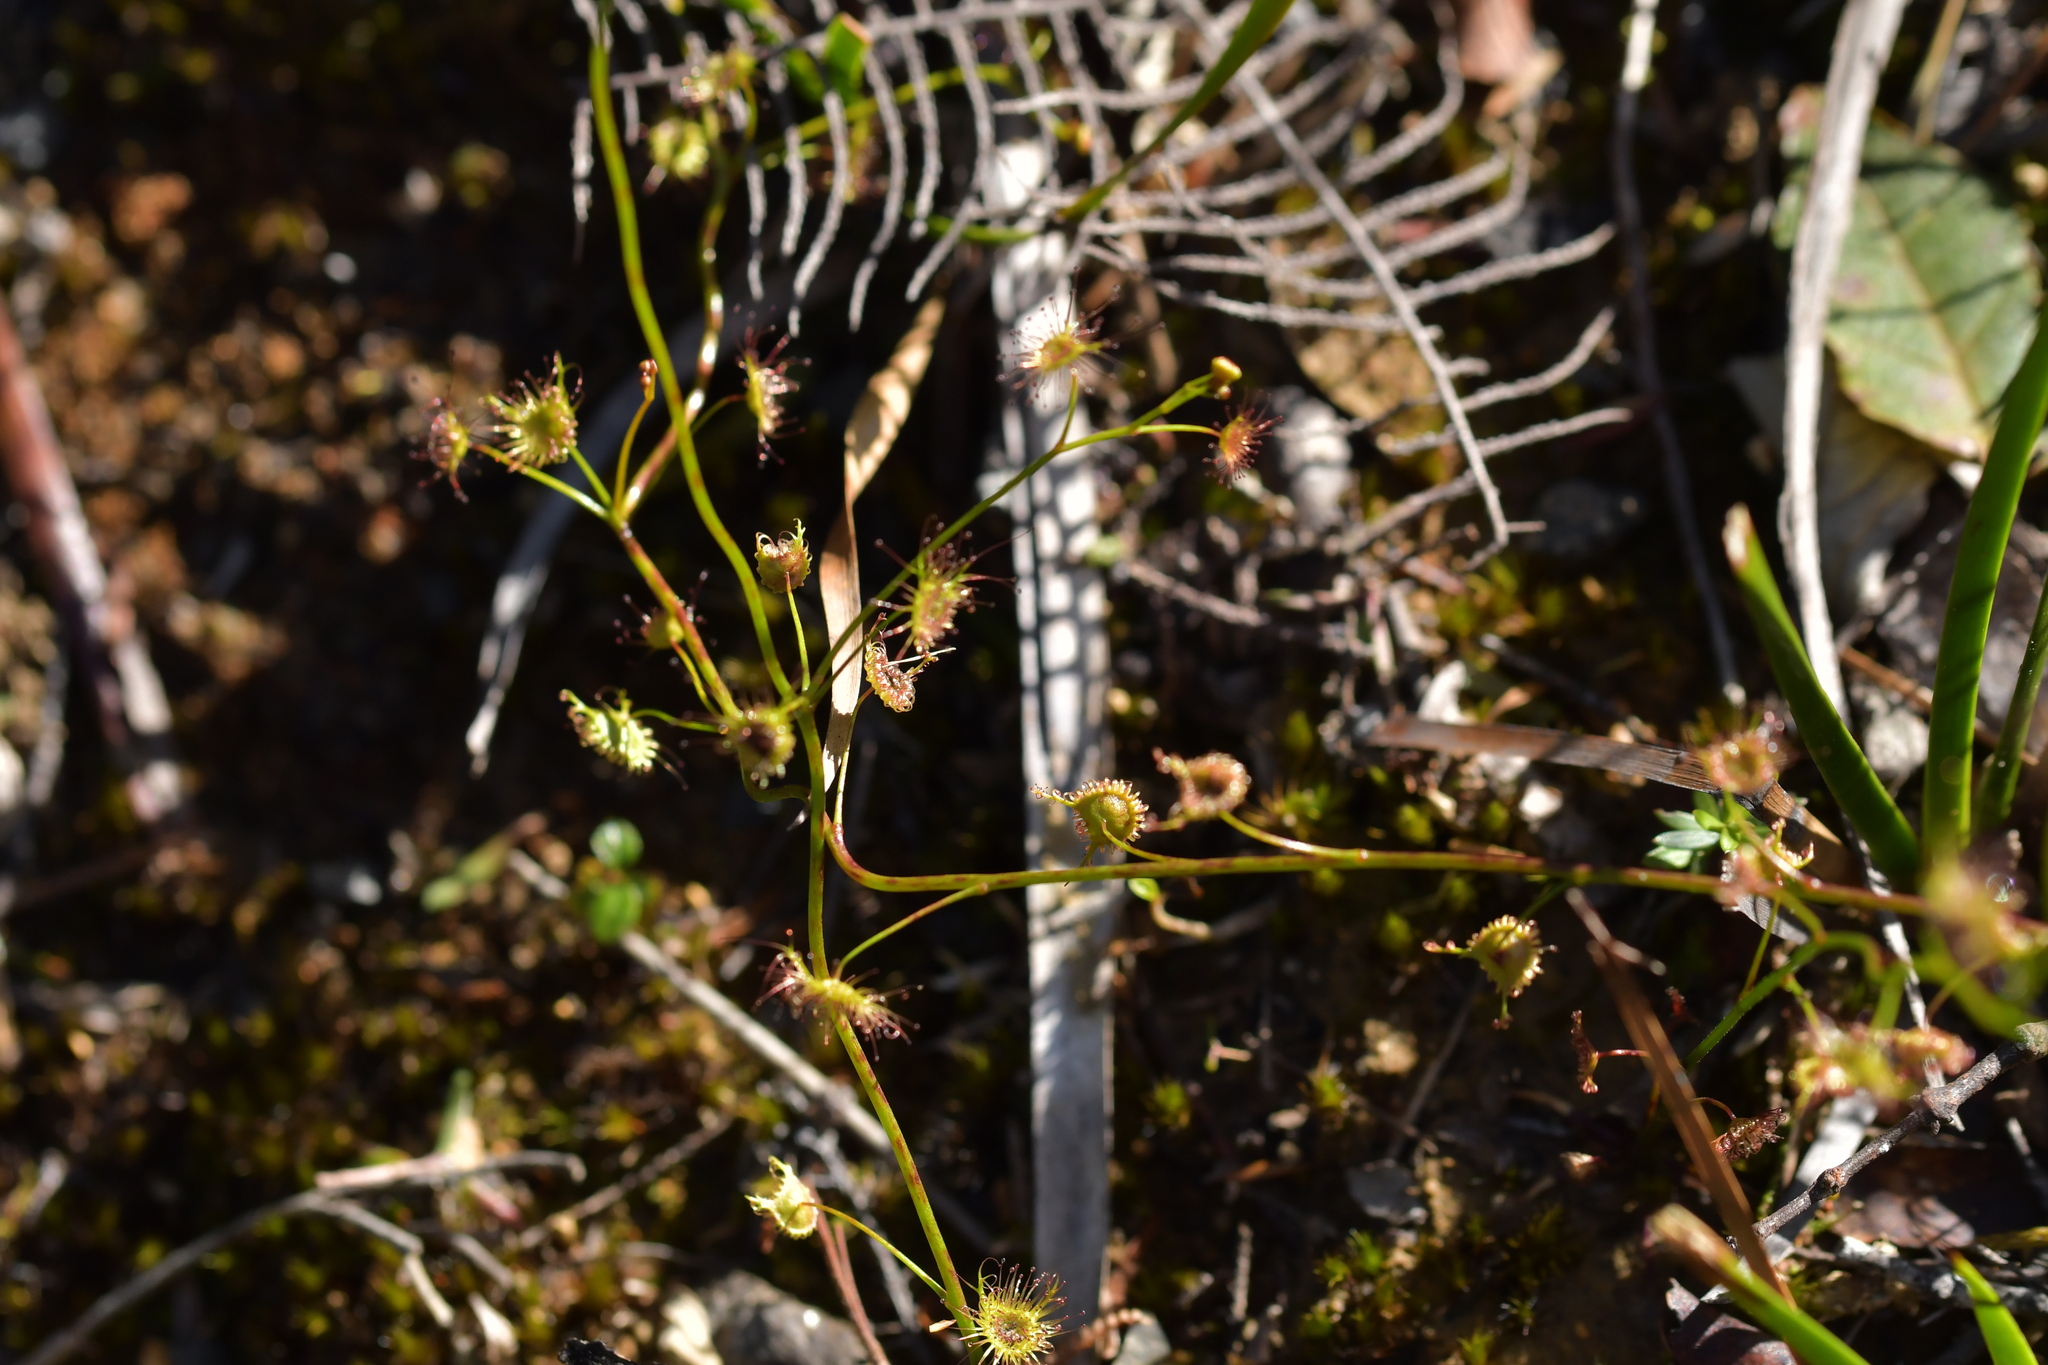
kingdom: Plantae
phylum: Tracheophyta
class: Magnoliopsida
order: Caryophyllales
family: Droseraceae
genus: Drosera
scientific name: Drosera peltata
